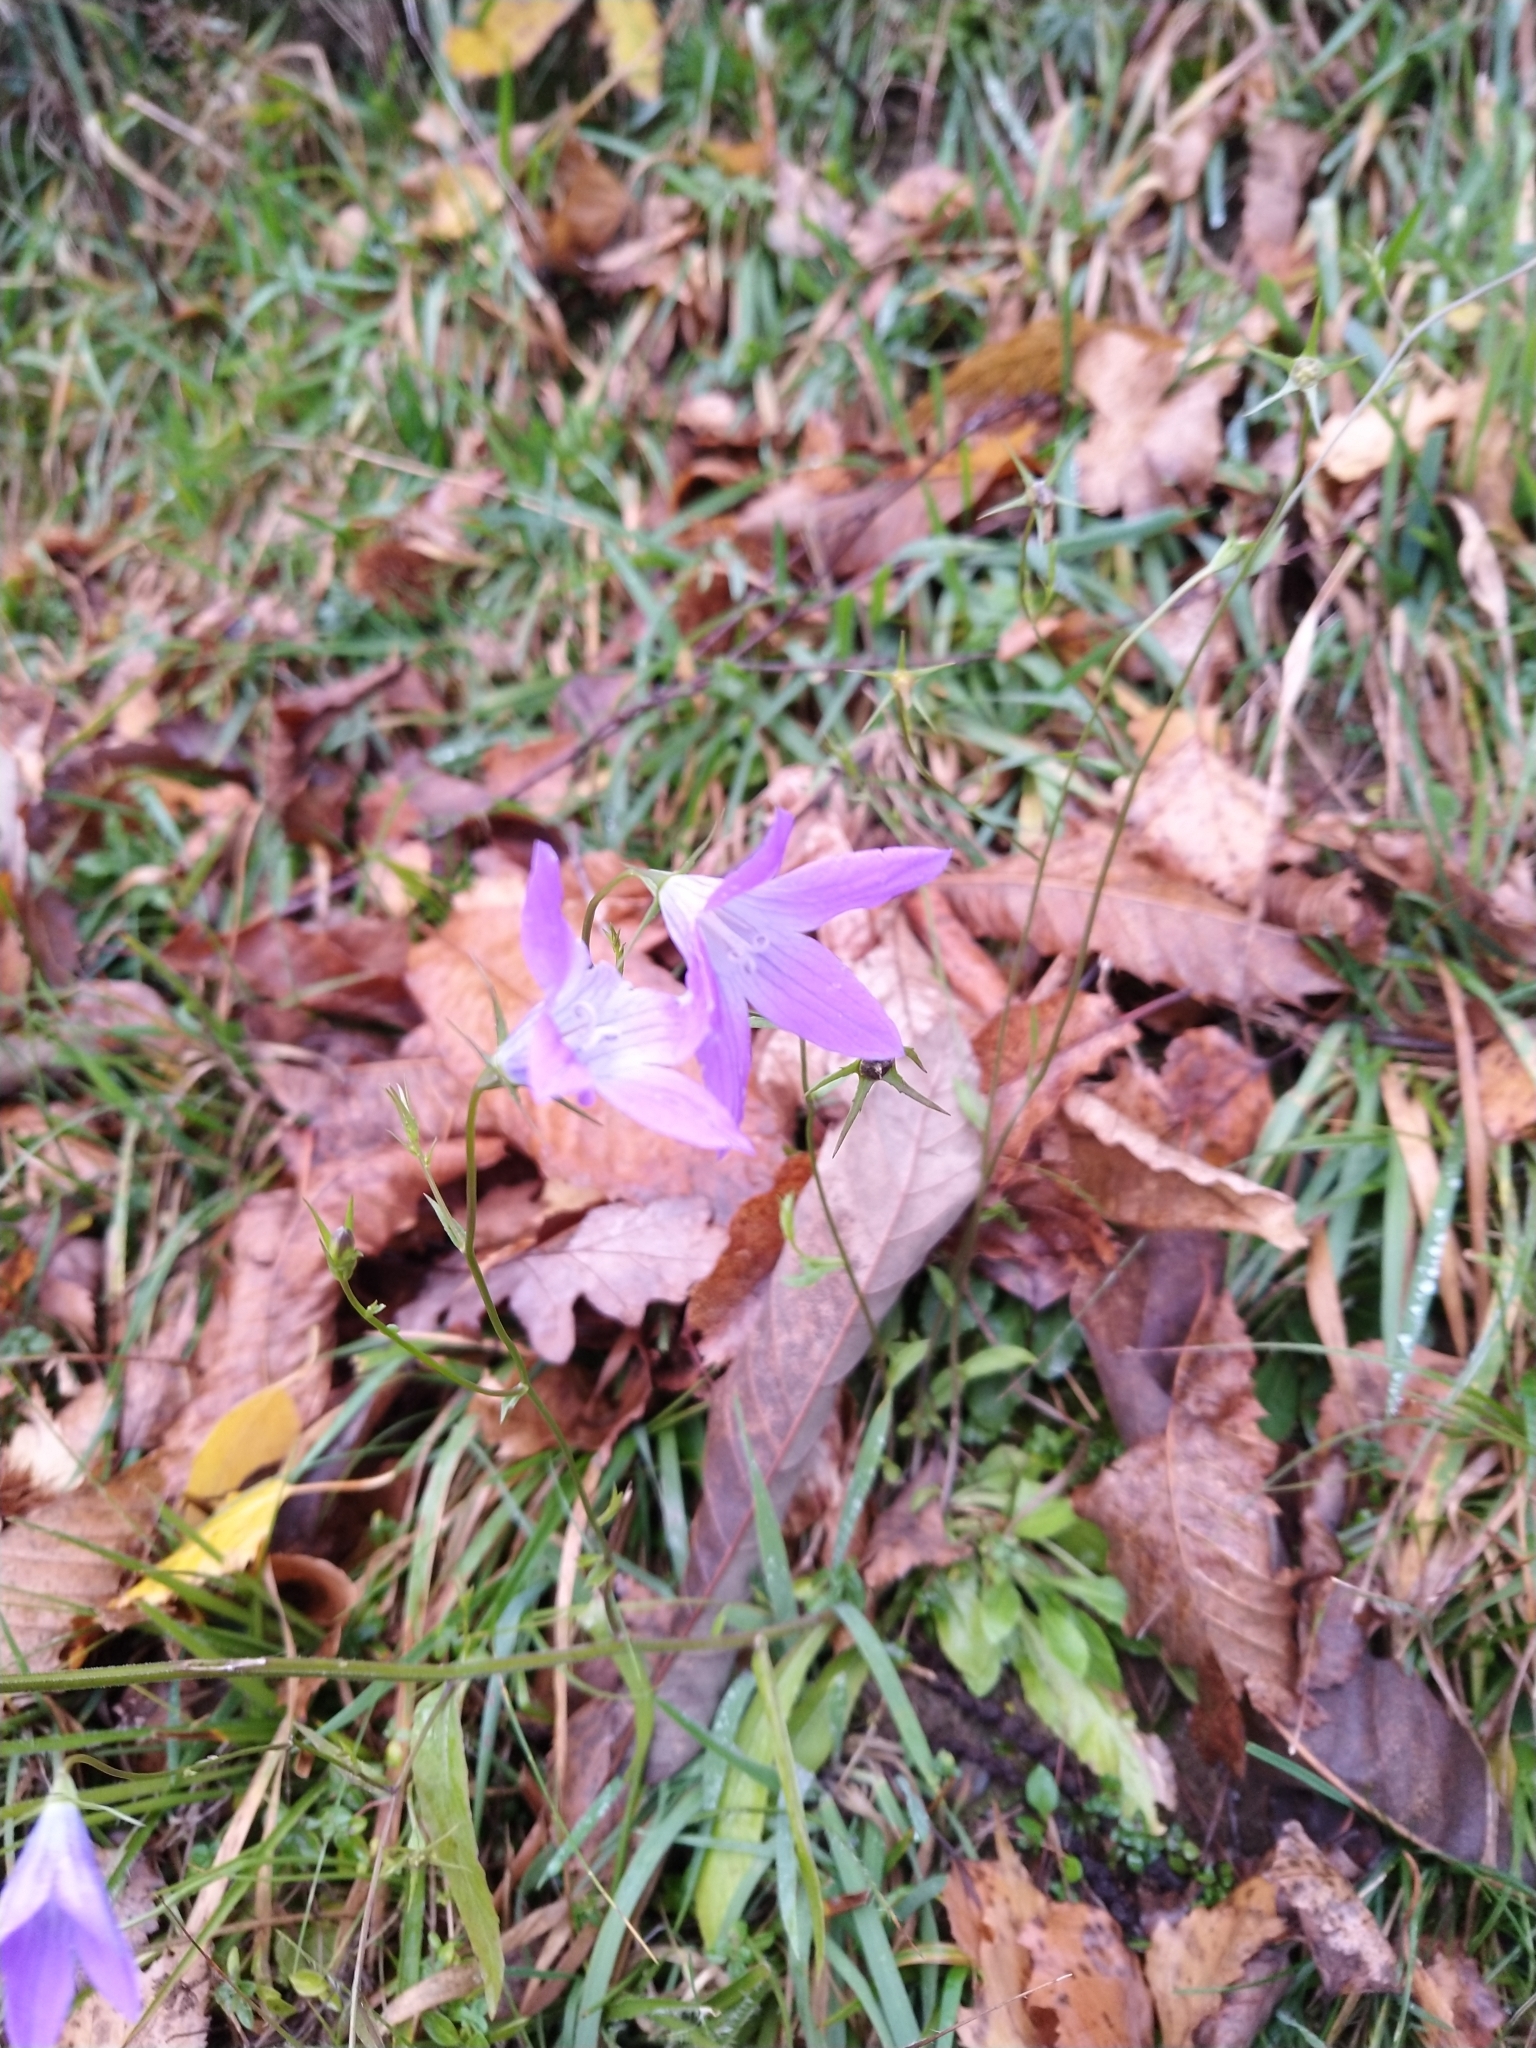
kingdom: Plantae
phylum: Tracheophyta
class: Magnoliopsida
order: Asterales
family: Campanulaceae
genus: Campanula
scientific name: Campanula patula
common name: Spreading bellflower
